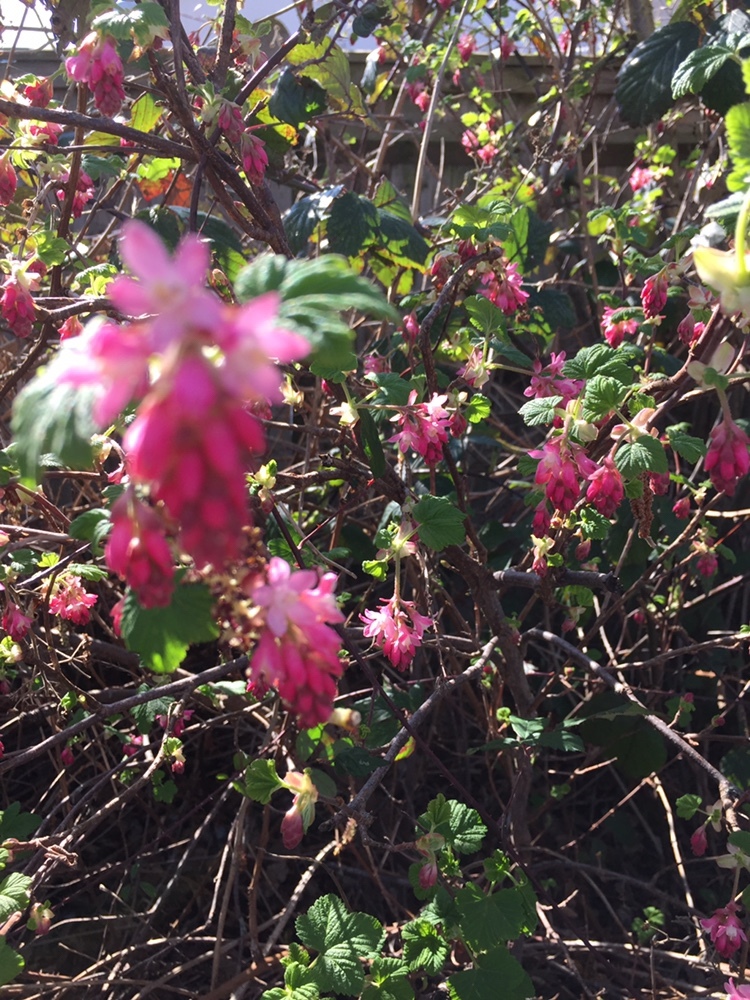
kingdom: Plantae
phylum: Tracheophyta
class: Magnoliopsida
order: Saxifragales
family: Grossulariaceae
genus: Ribes
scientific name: Ribes sanguineum
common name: Flowering currant
